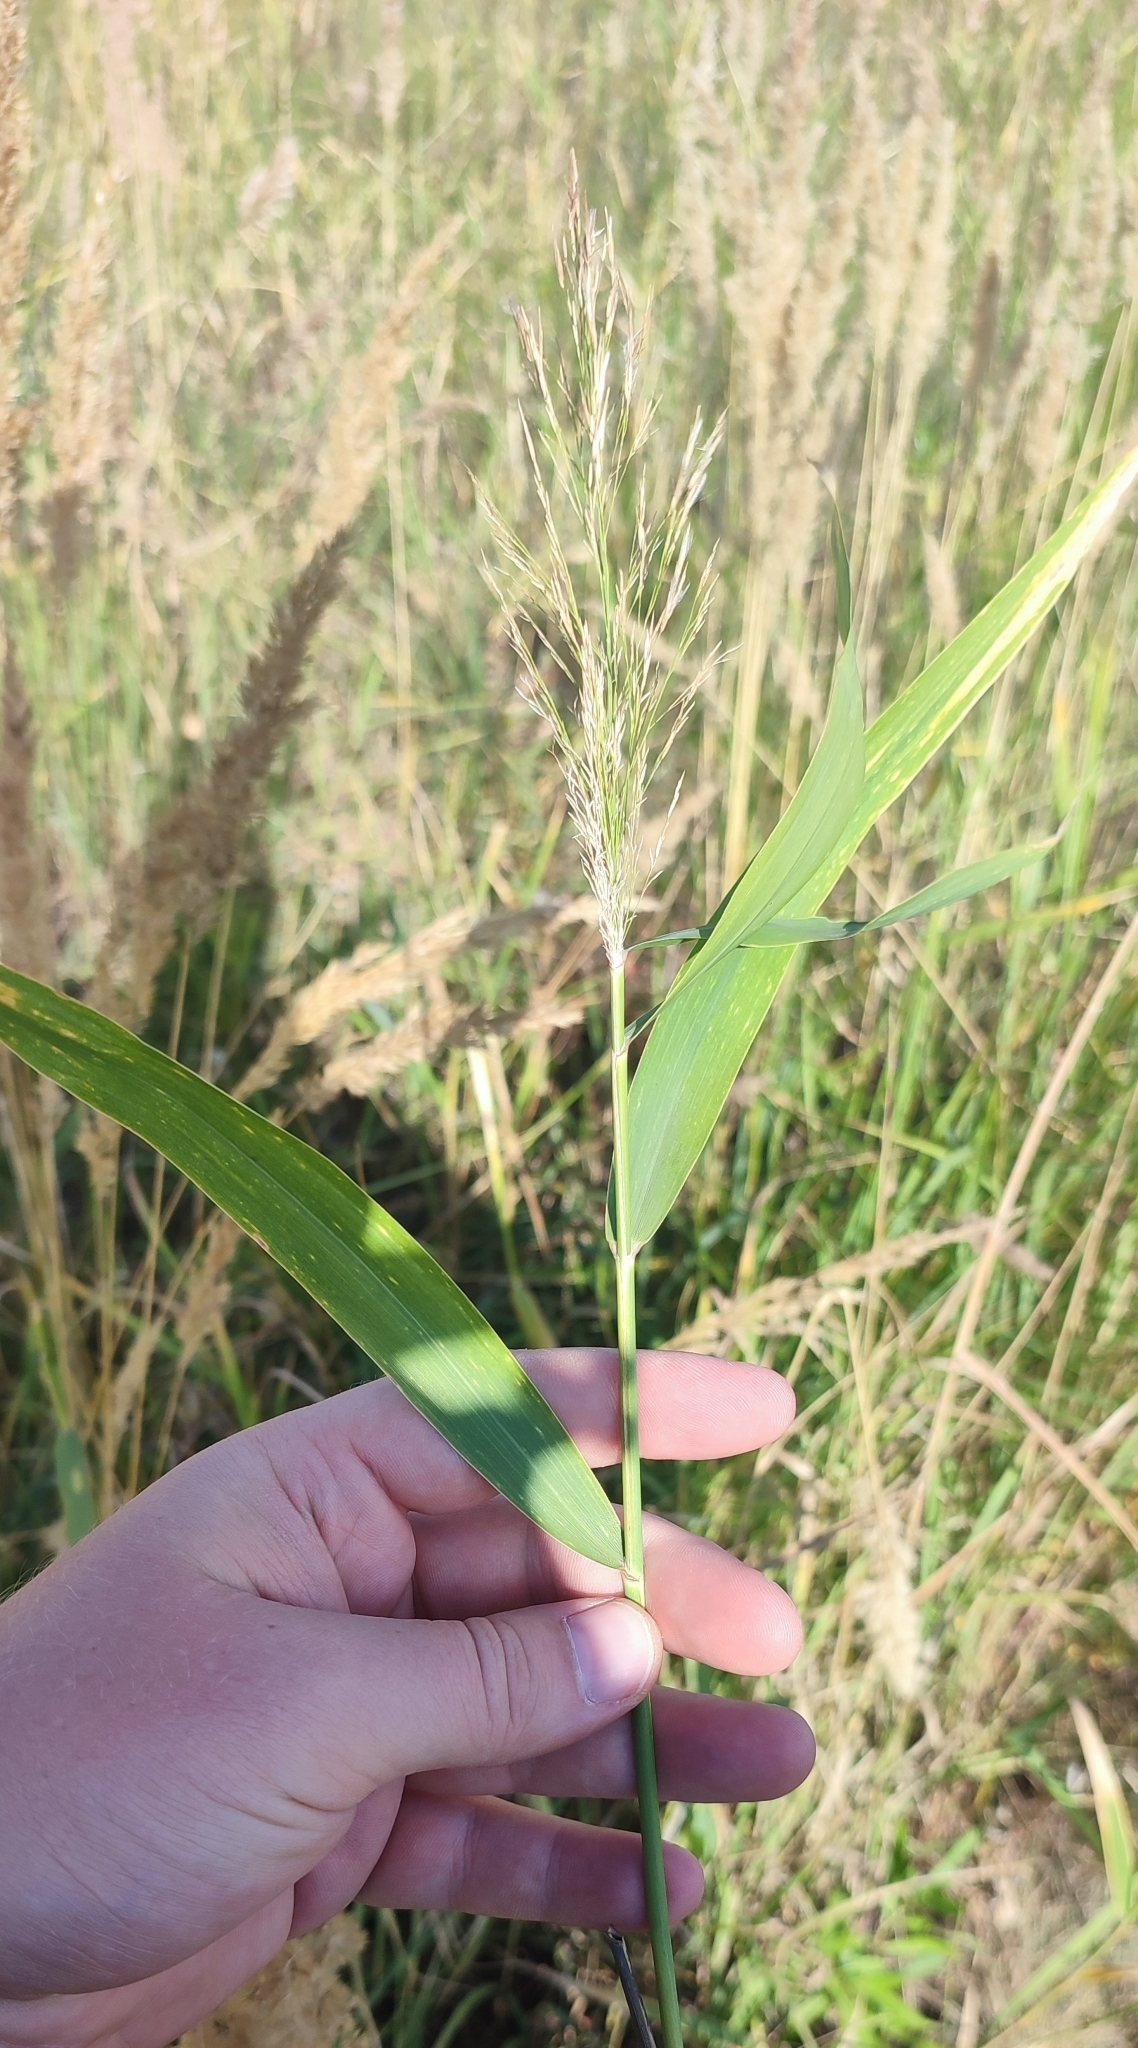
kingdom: Plantae
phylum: Tracheophyta
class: Liliopsida
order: Poales
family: Poaceae
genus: Phragmites
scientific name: Phragmites australis
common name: Common reed
